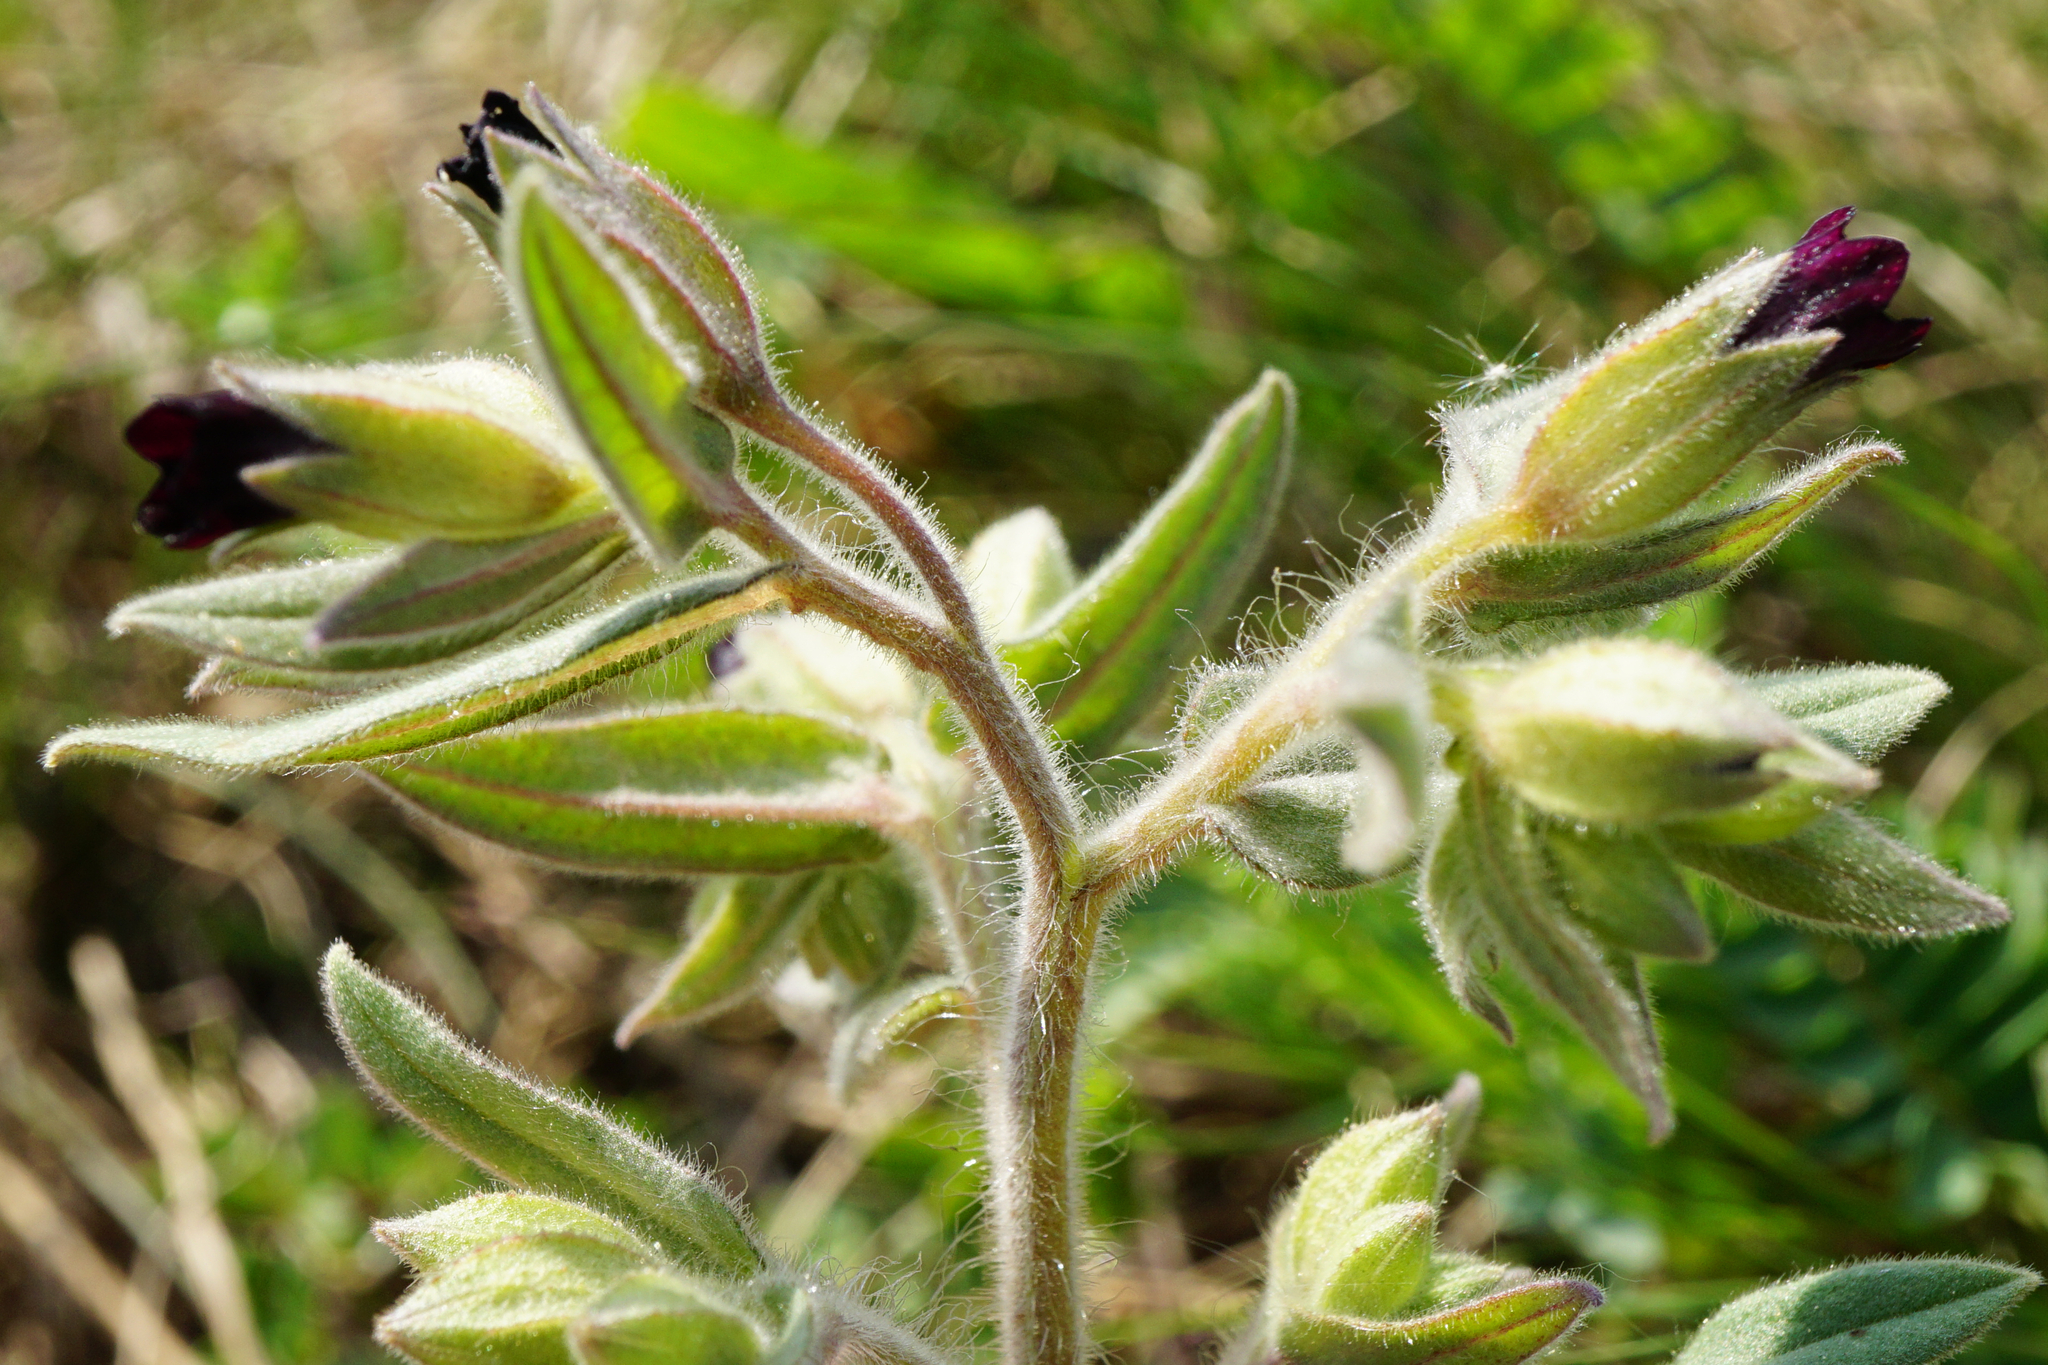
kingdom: Plantae
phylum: Tracheophyta
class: Magnoliopsida
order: Boraginales
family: Boraginaceae
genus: Nonea
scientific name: Nonea pulla
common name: Brown nonea
